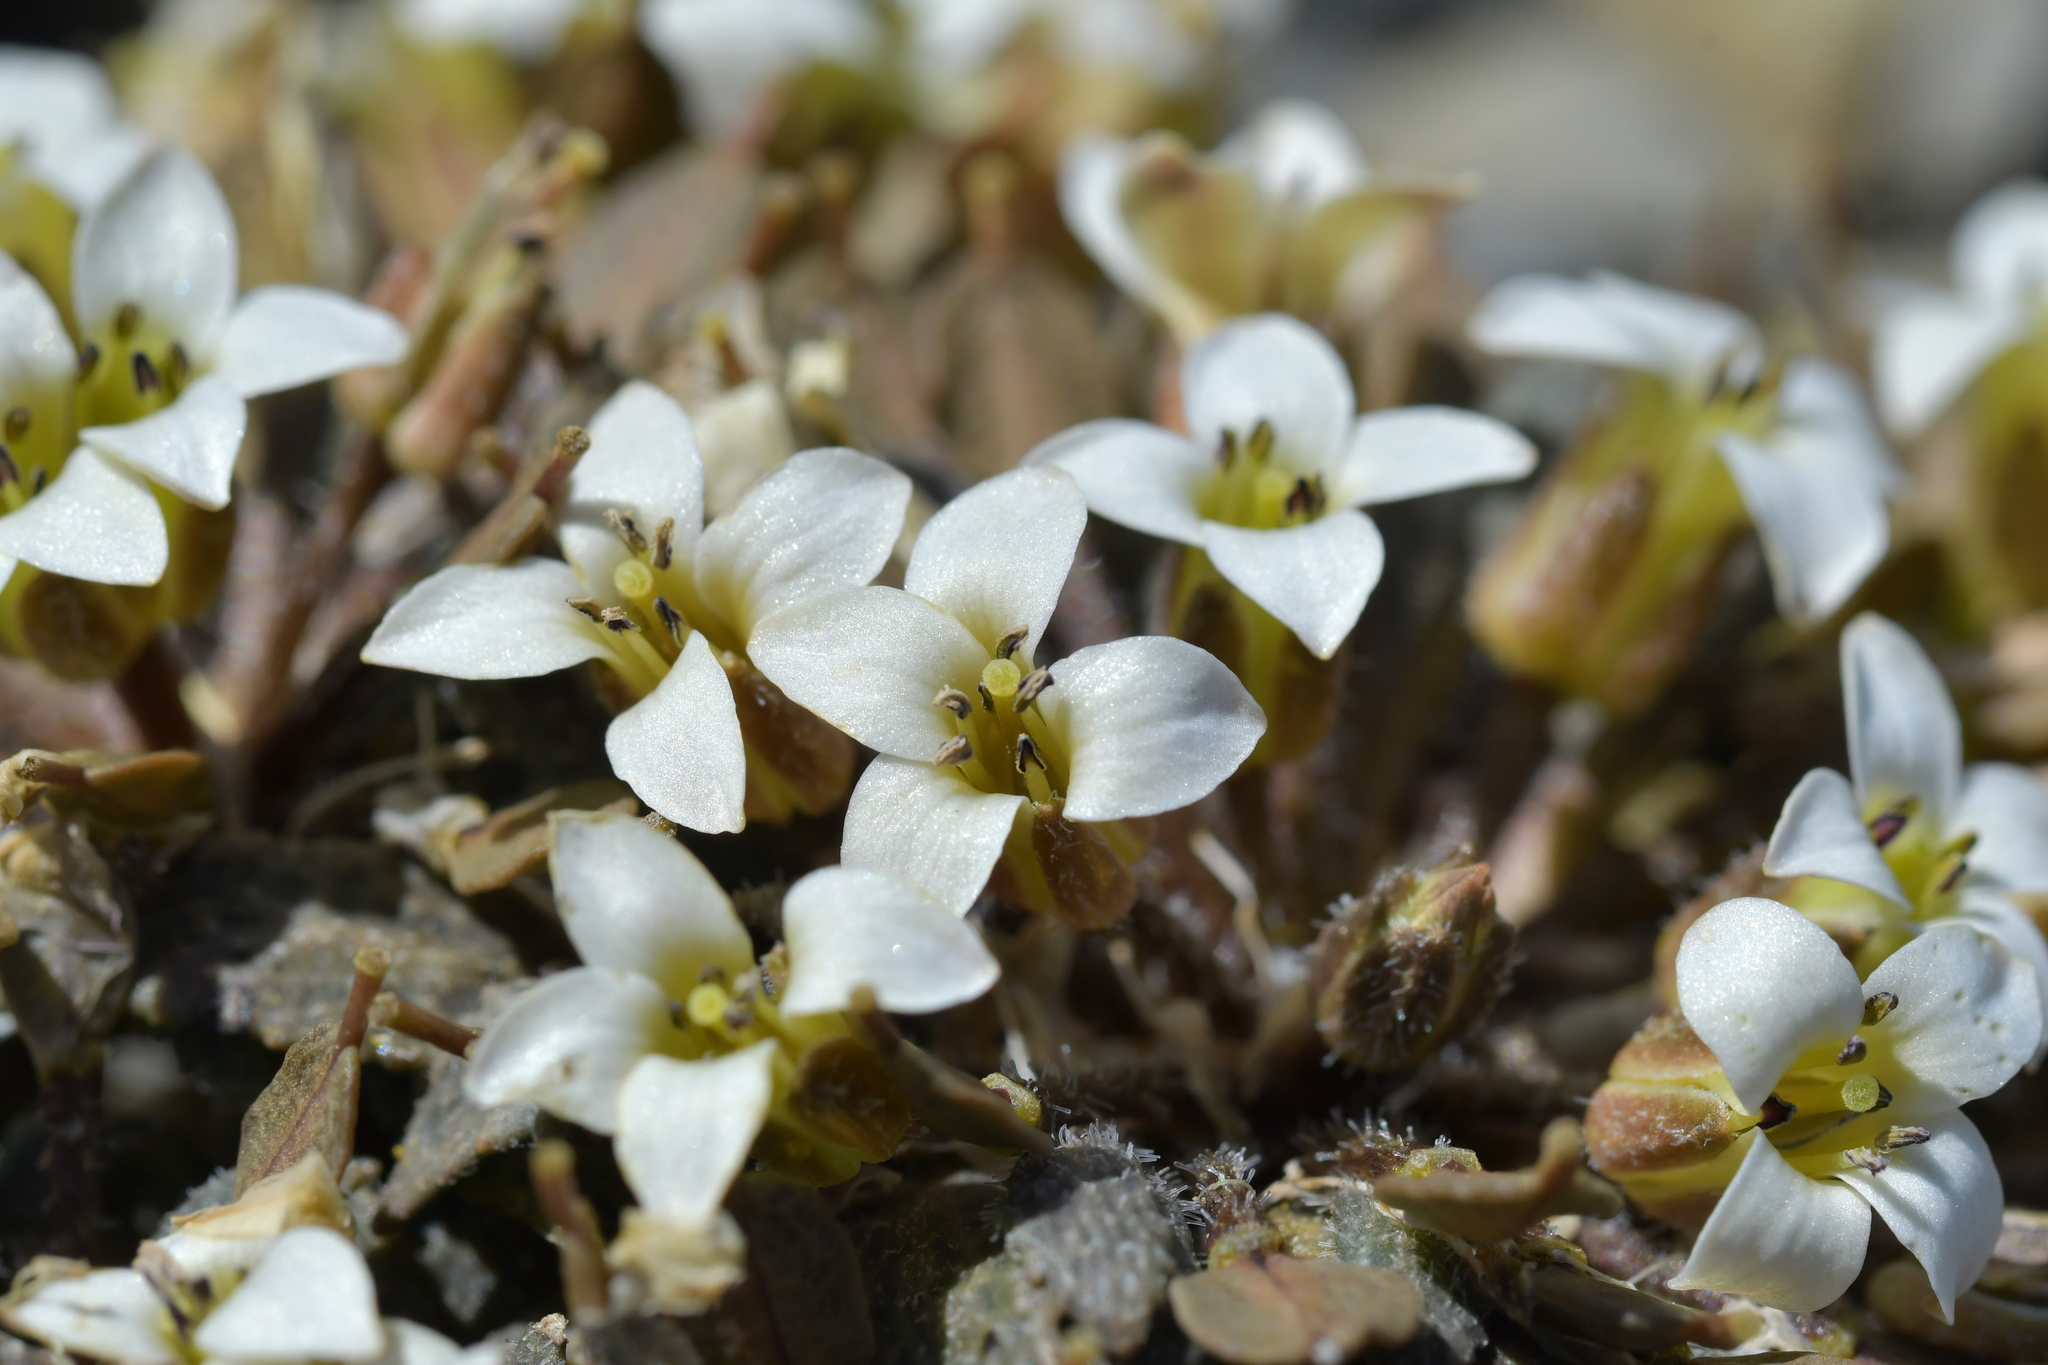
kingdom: Plantae
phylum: Tracheophyta
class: Magnoliopsida
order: Brassicales
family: Brassicaceae
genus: Notothlaspi
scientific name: Notothlaspi australe
